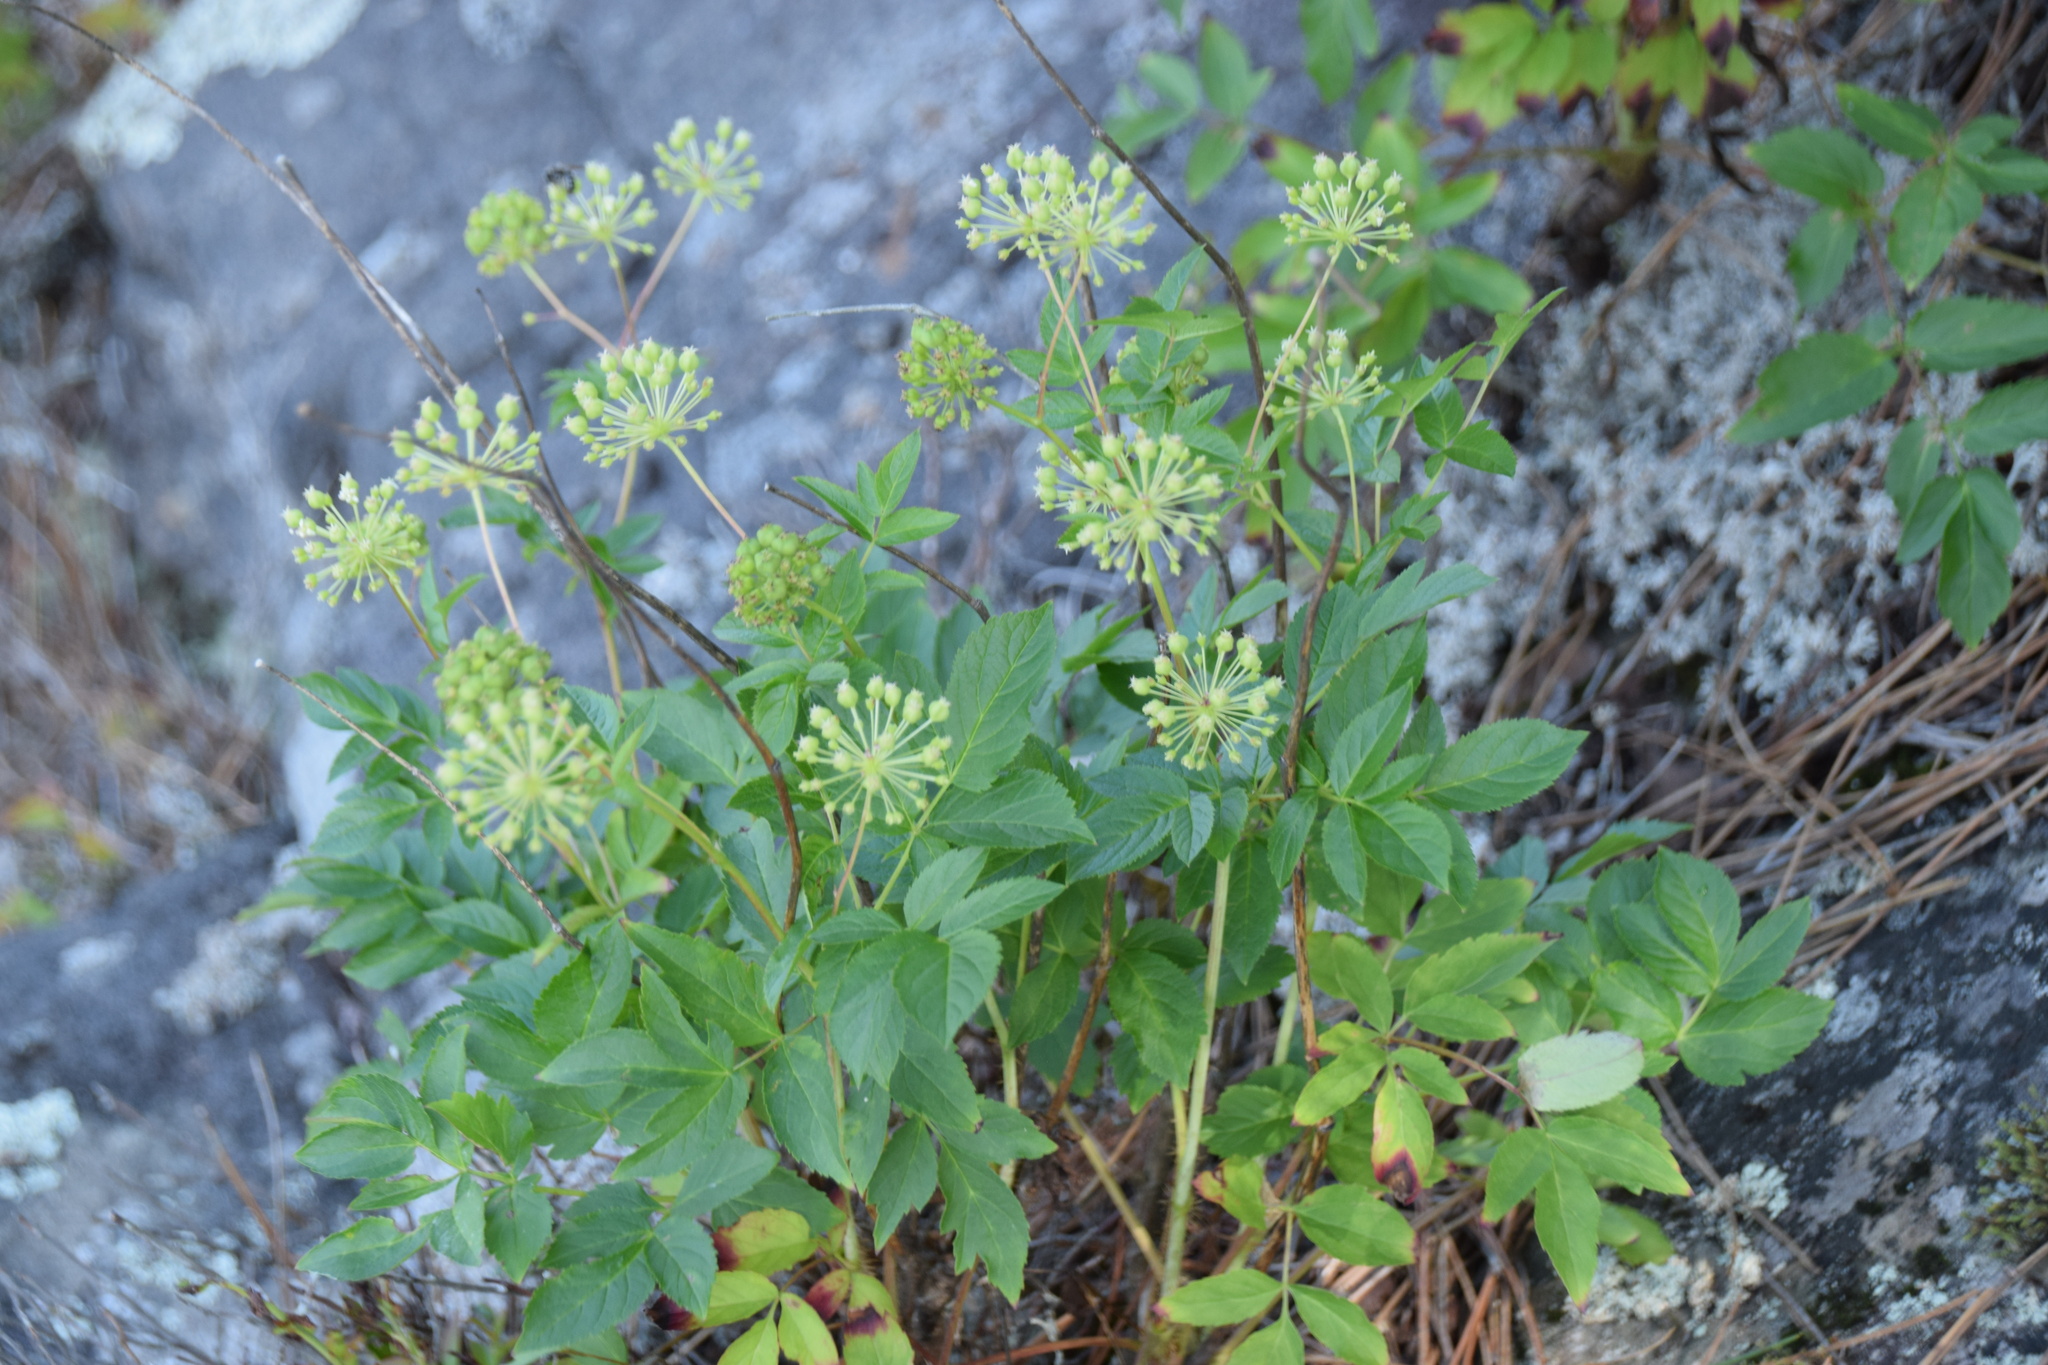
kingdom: Plantae
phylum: Tracheophyta
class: Magnoliopsida
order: Apiales
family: Araliaceae
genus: Aralia
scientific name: Aralia hispida
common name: Bristly sarsaparilla
